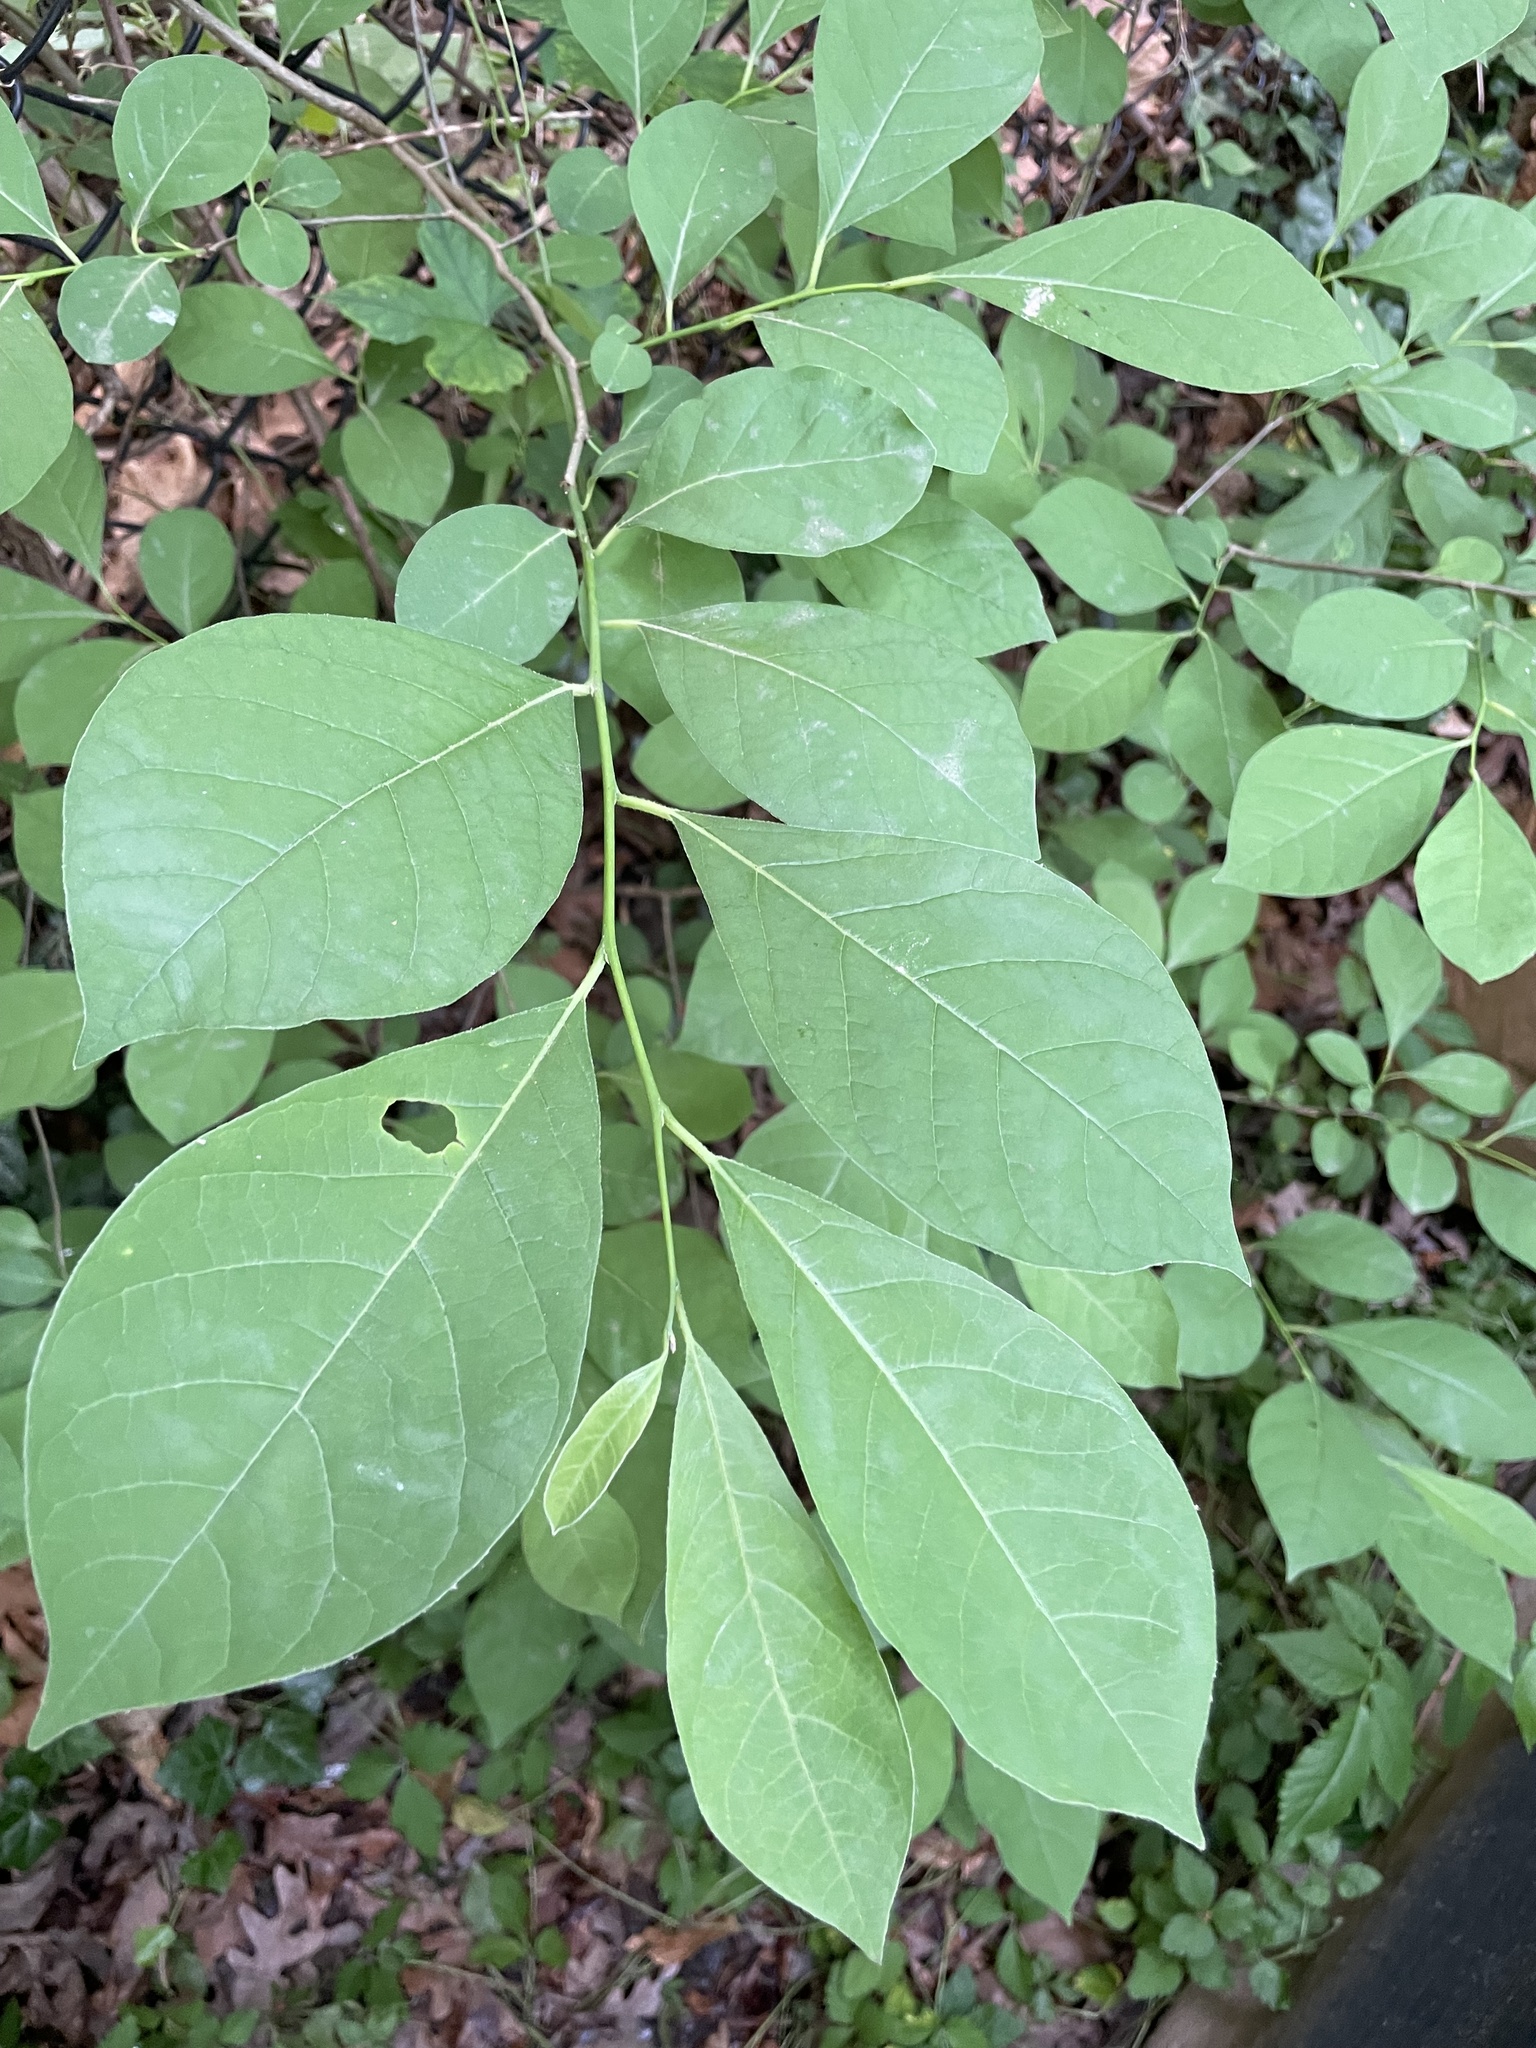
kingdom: Plantae
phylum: Tracheophyta
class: Magnoliopsida
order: Laurales
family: Lauraceae
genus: Lindera
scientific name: Lindera benzoin
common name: Spicebush
